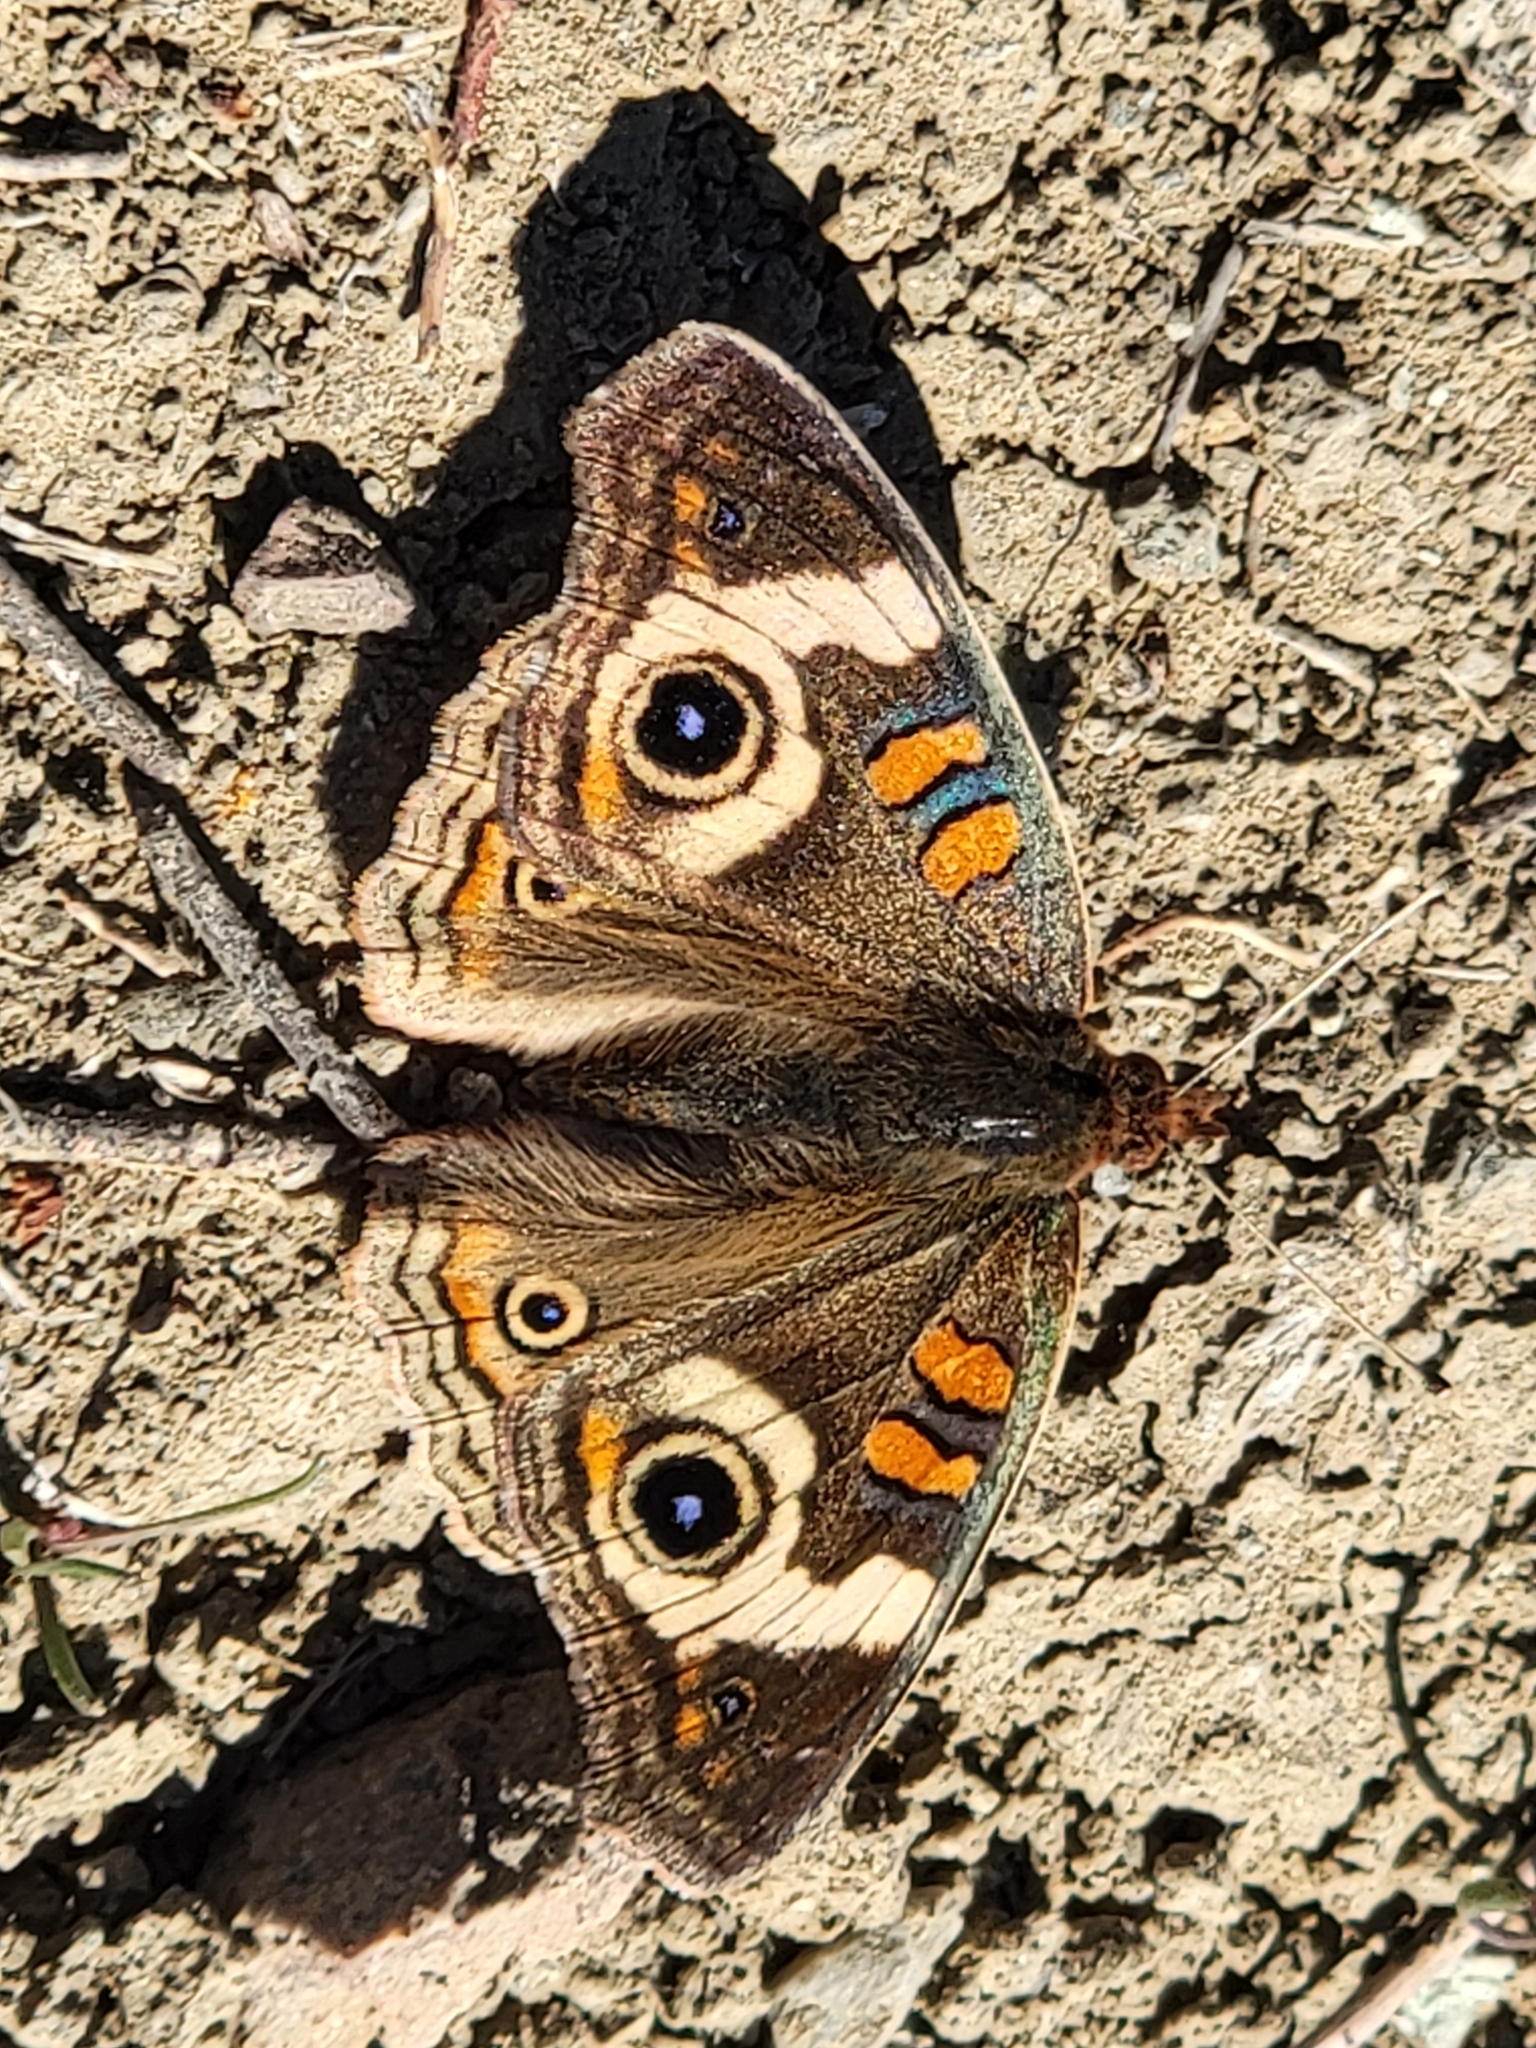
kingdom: Animalia
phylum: Arthropoda
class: Insecta
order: Lepidoptera
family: Nymphalidae
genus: Junonia
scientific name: Junonia grisea
